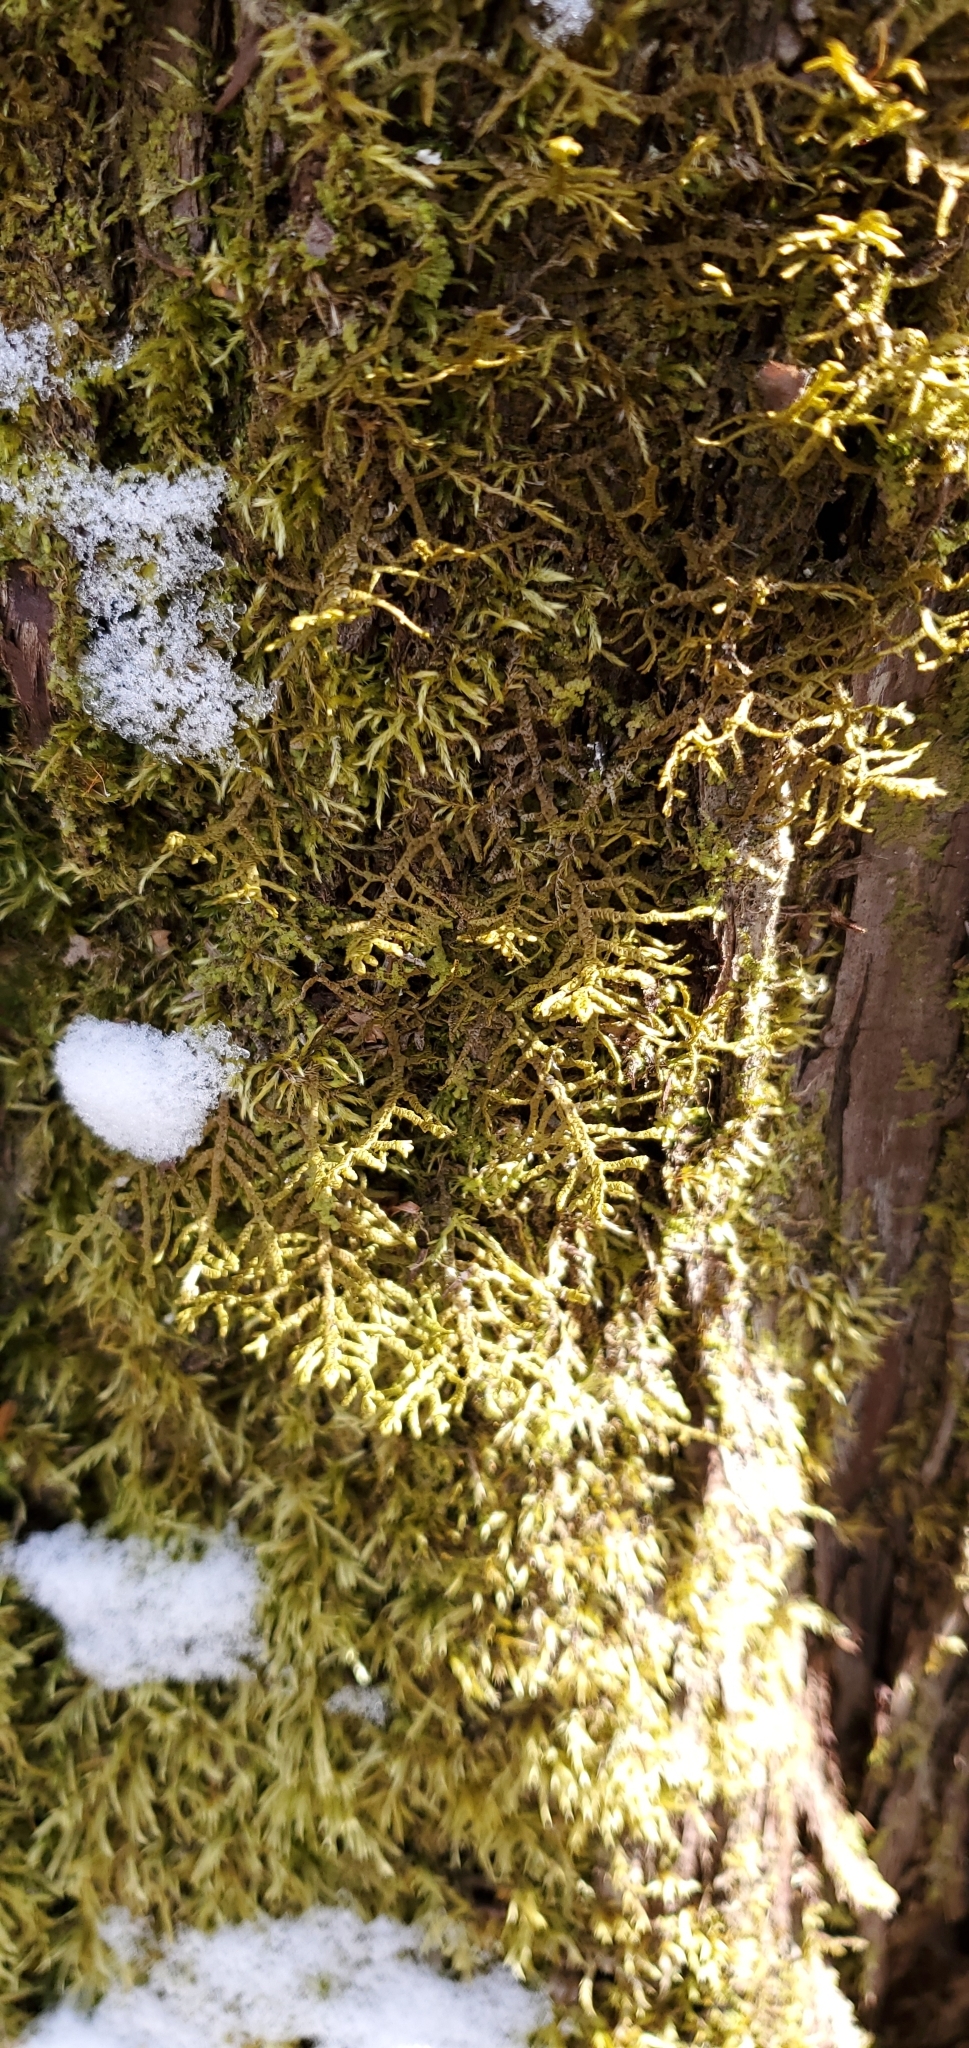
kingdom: Plantae
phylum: Marchantiophyta
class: Jungermanniopsida
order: Porellales
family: Porellaceae
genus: Porella
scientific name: Porella platyphylla
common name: Wall scalewort
